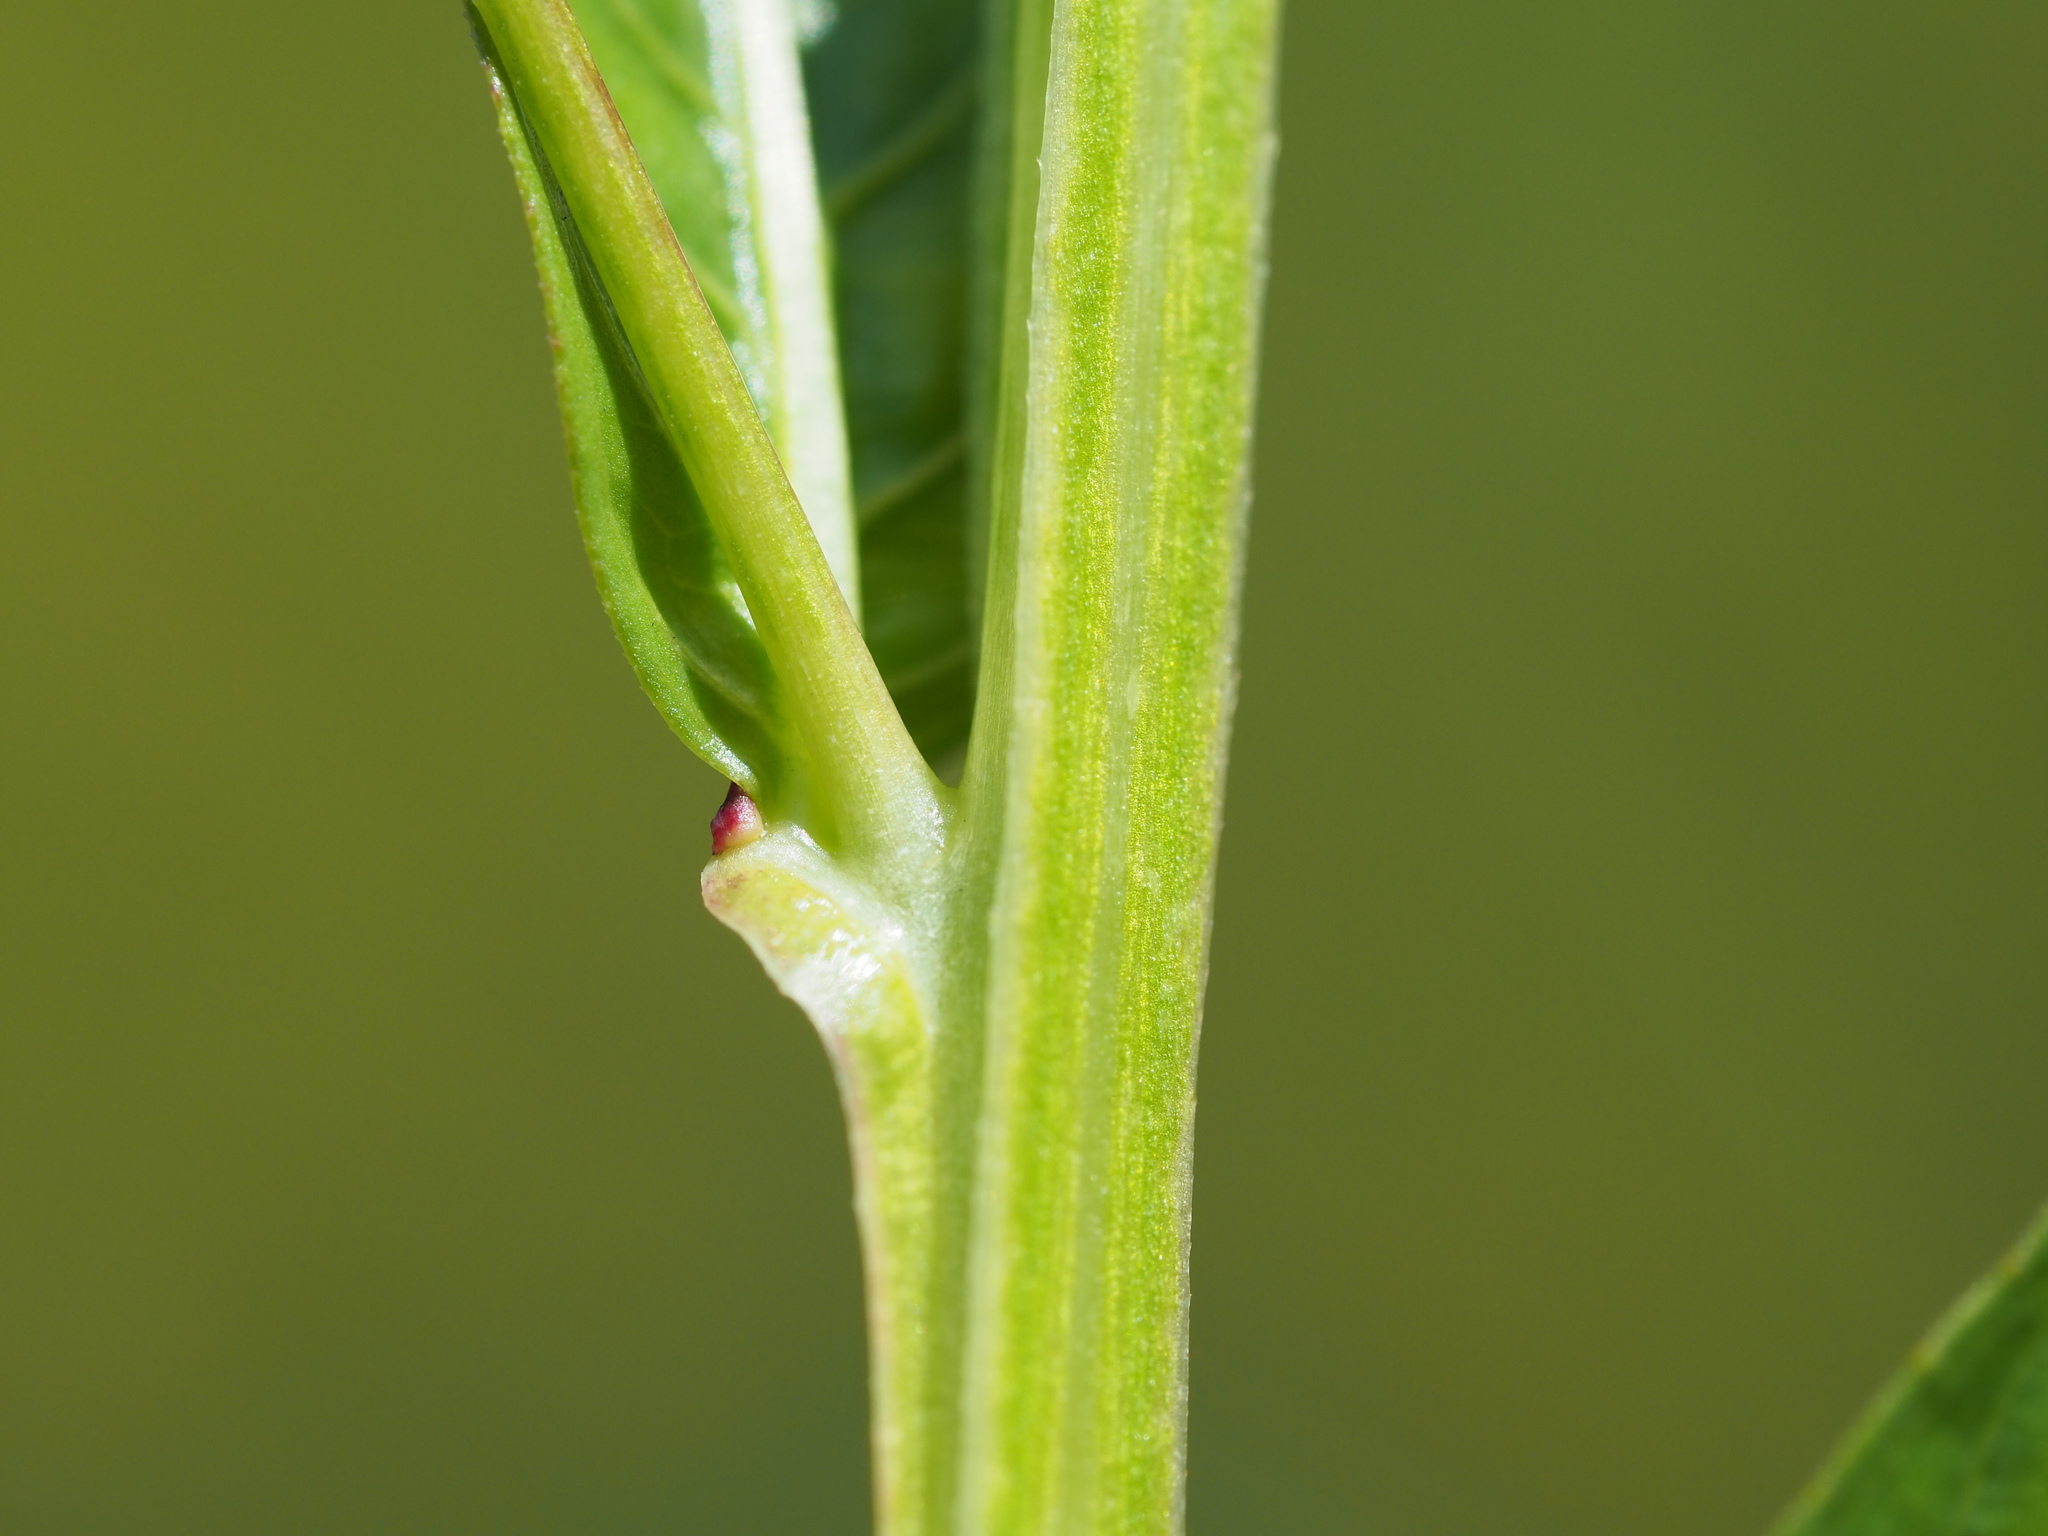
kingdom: Plantae
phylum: Tracheophyta
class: Magnoliopsida
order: Myrtales
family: Onagraceae
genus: Ludwigia
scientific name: Ludwigia decurrens
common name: Winged water-primrose
